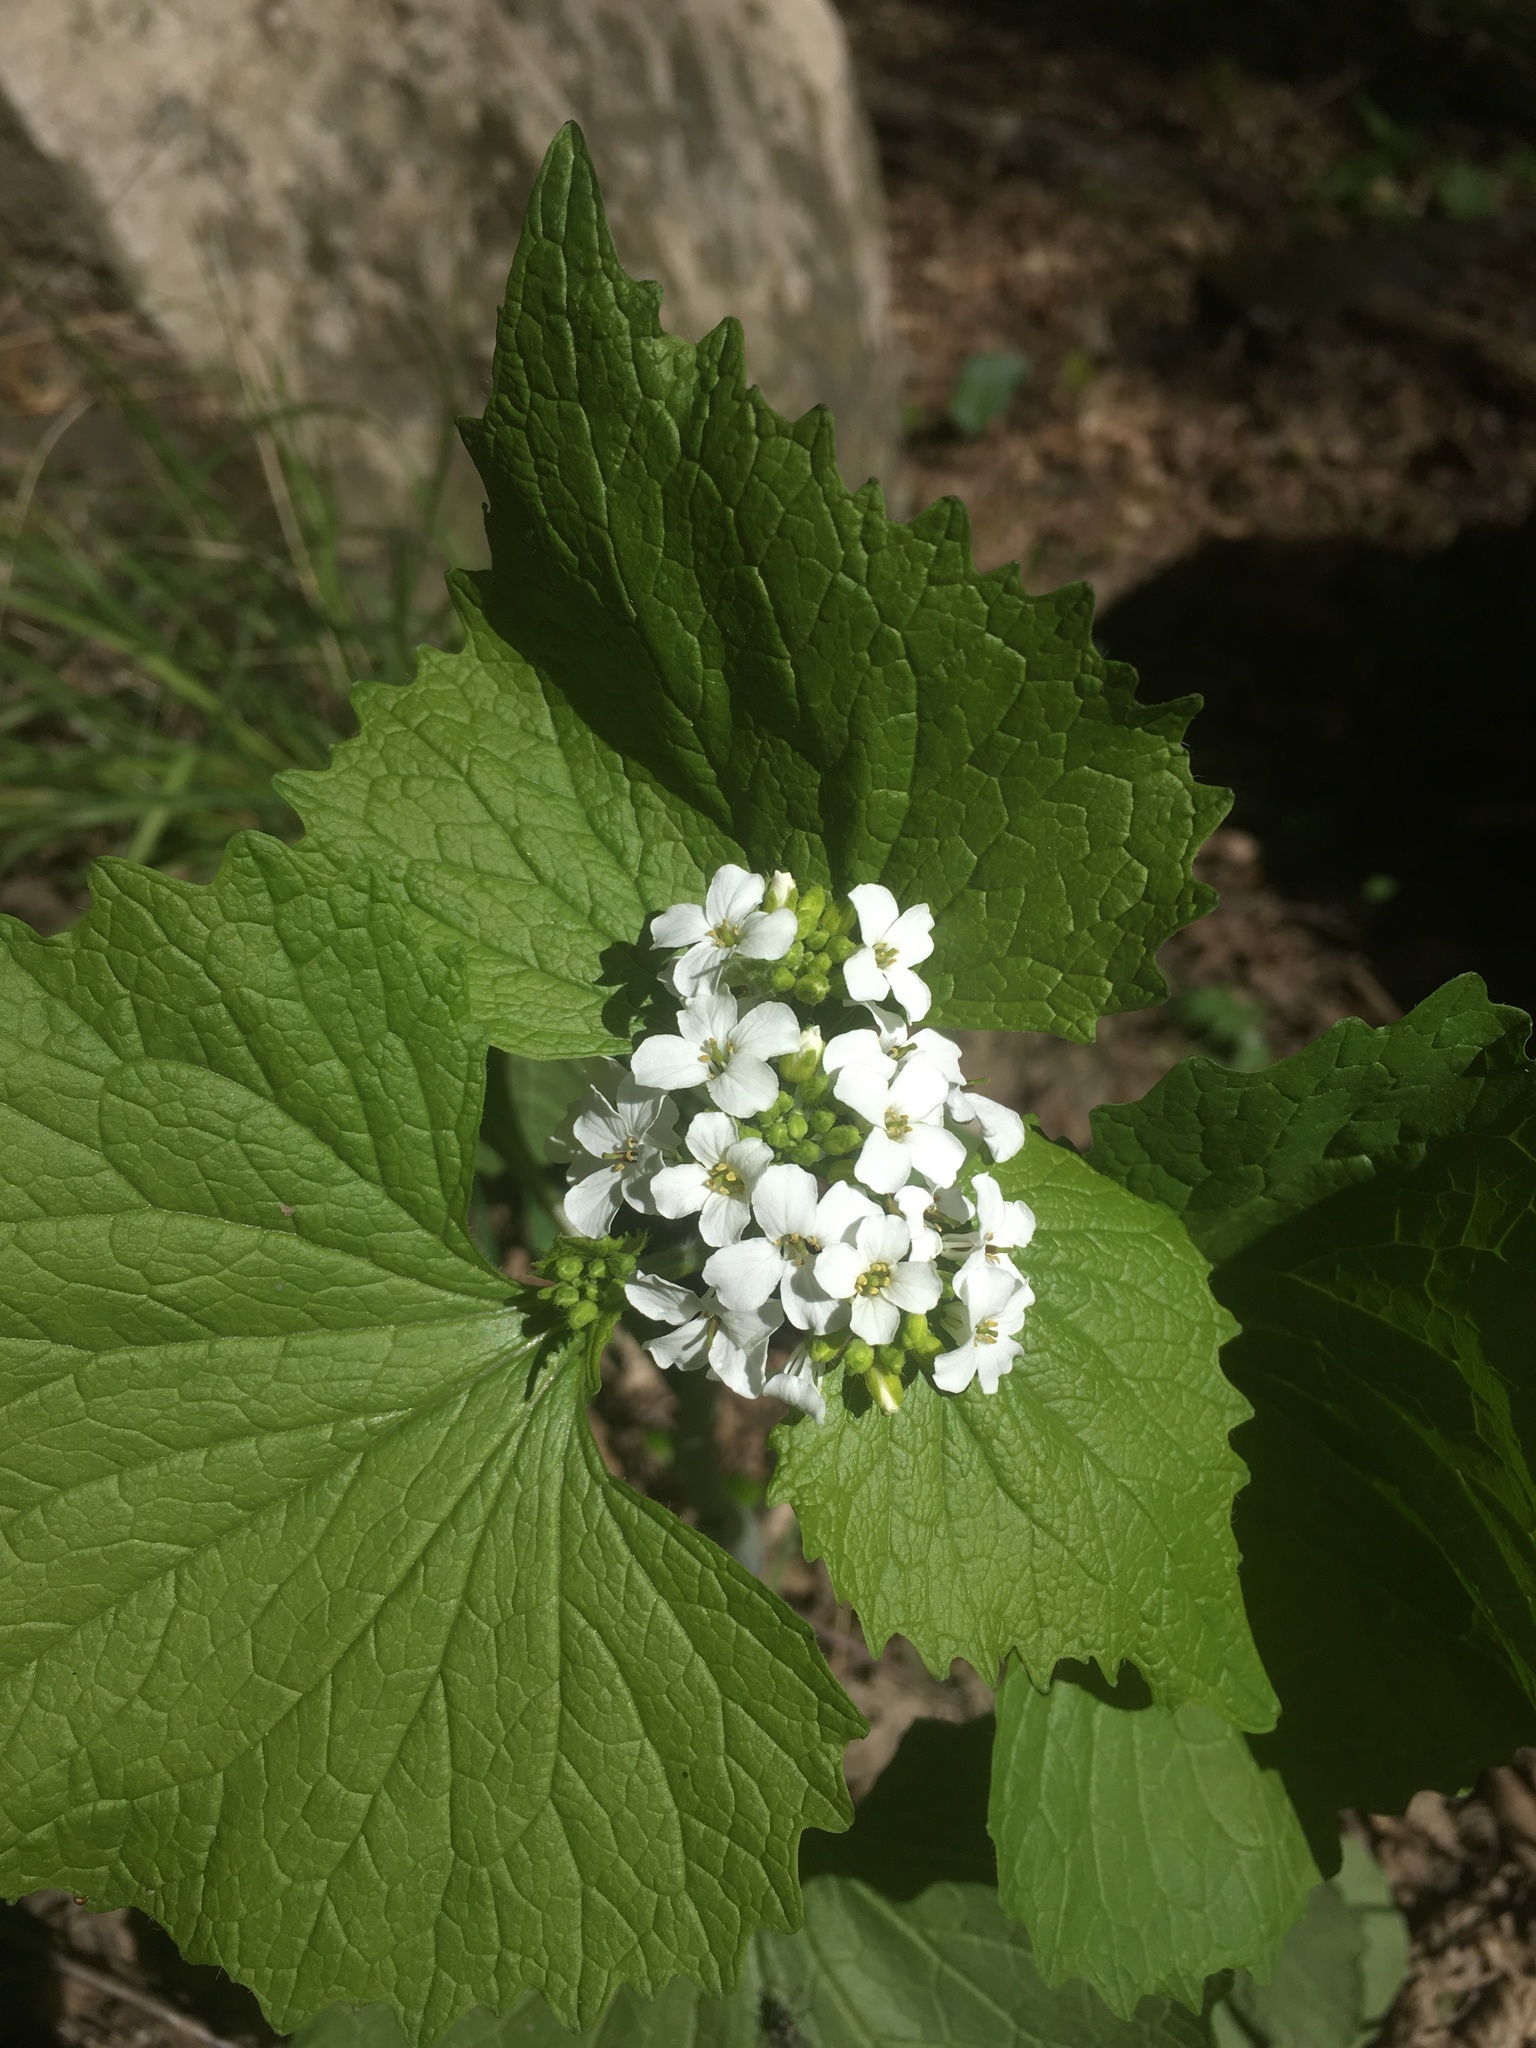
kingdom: Plantae
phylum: Tracheophyta
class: Magnoliopsida
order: Brassicales
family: Brassicaceae
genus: Alliaria
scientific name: Alliaria petiolata
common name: Garlic mustard
